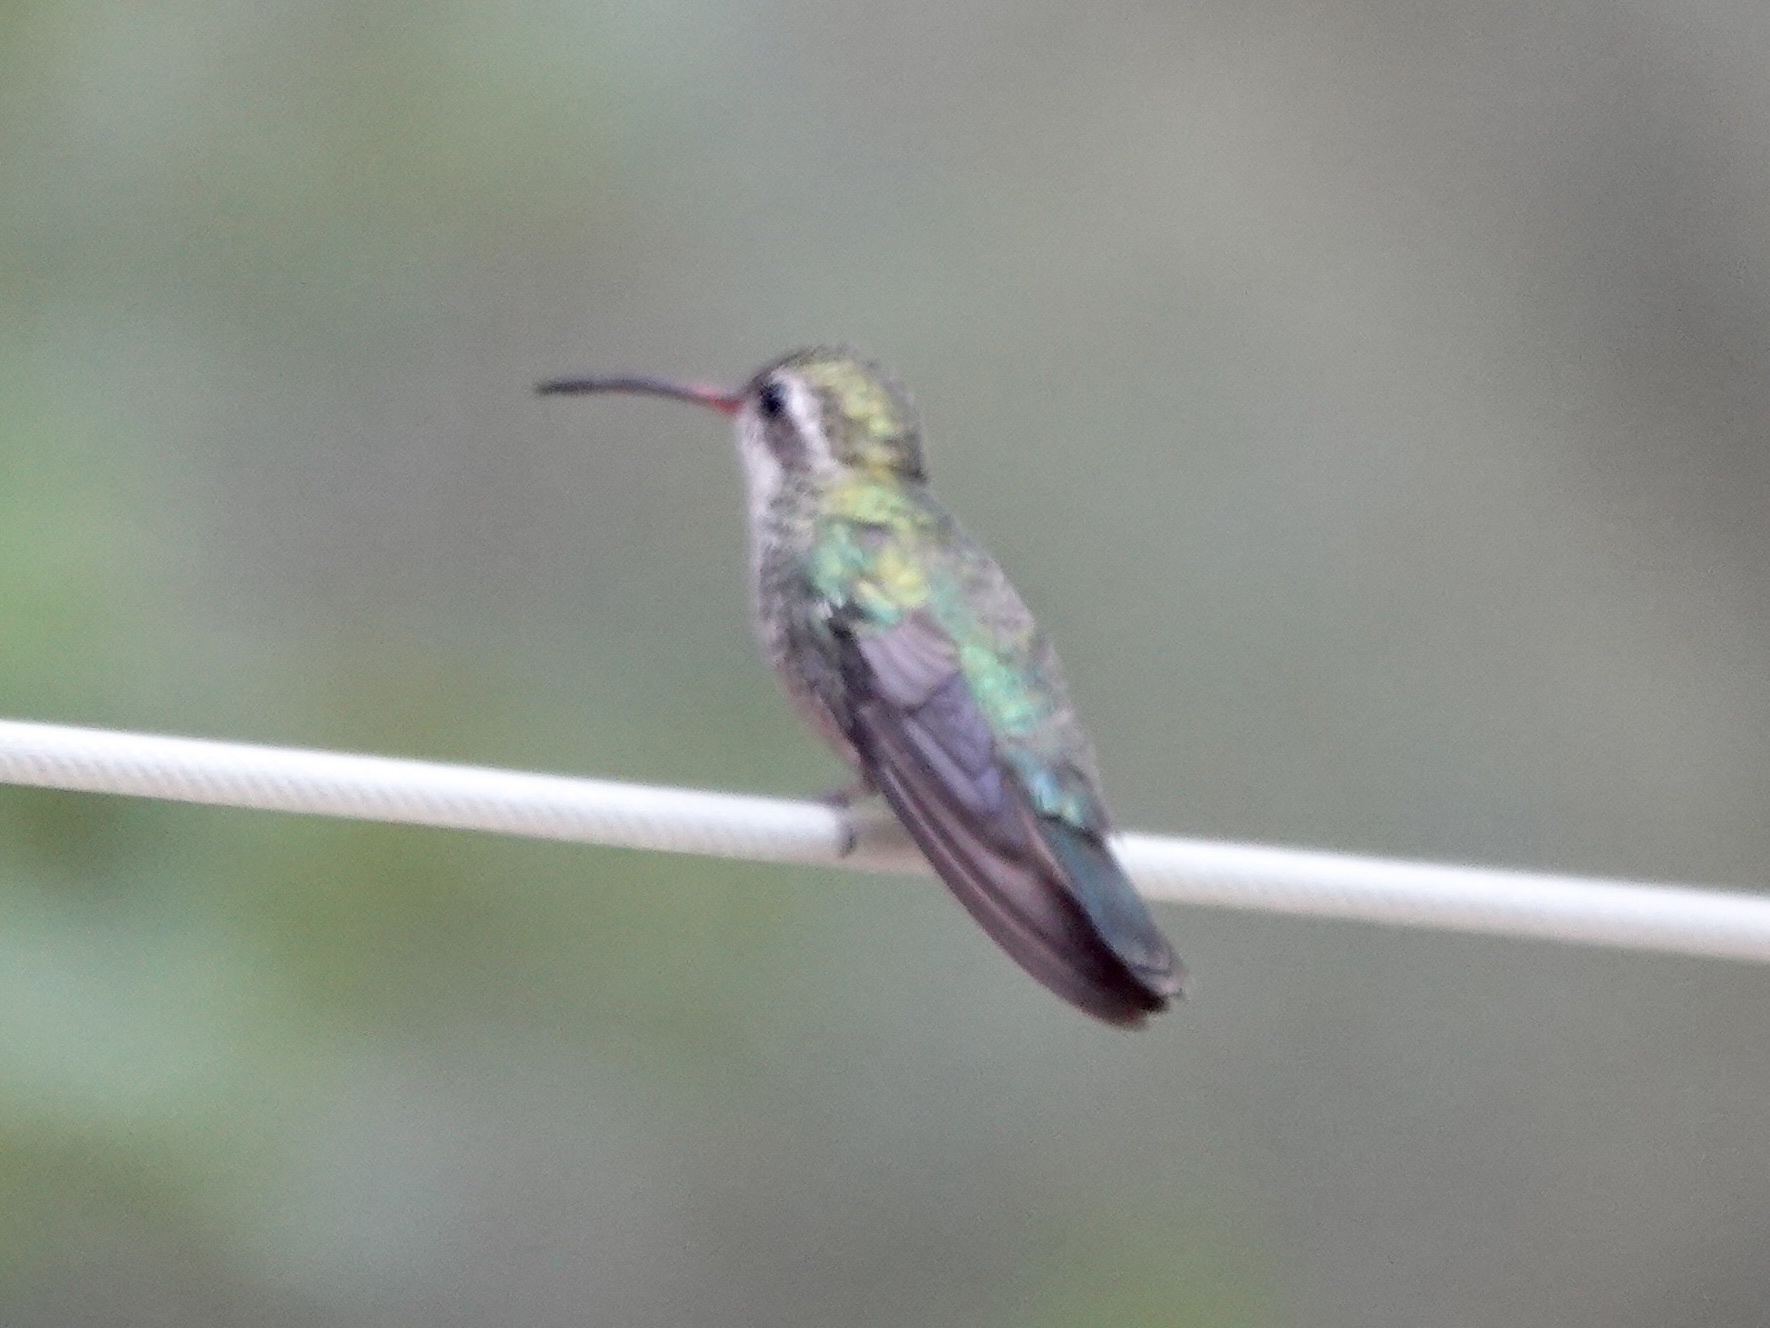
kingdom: Animalia
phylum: Chordata
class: Aves
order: Apodiformes
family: Trochilidae
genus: Cynanthus
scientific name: Cynanthus latirostris
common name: Broad-billed hummingbird
